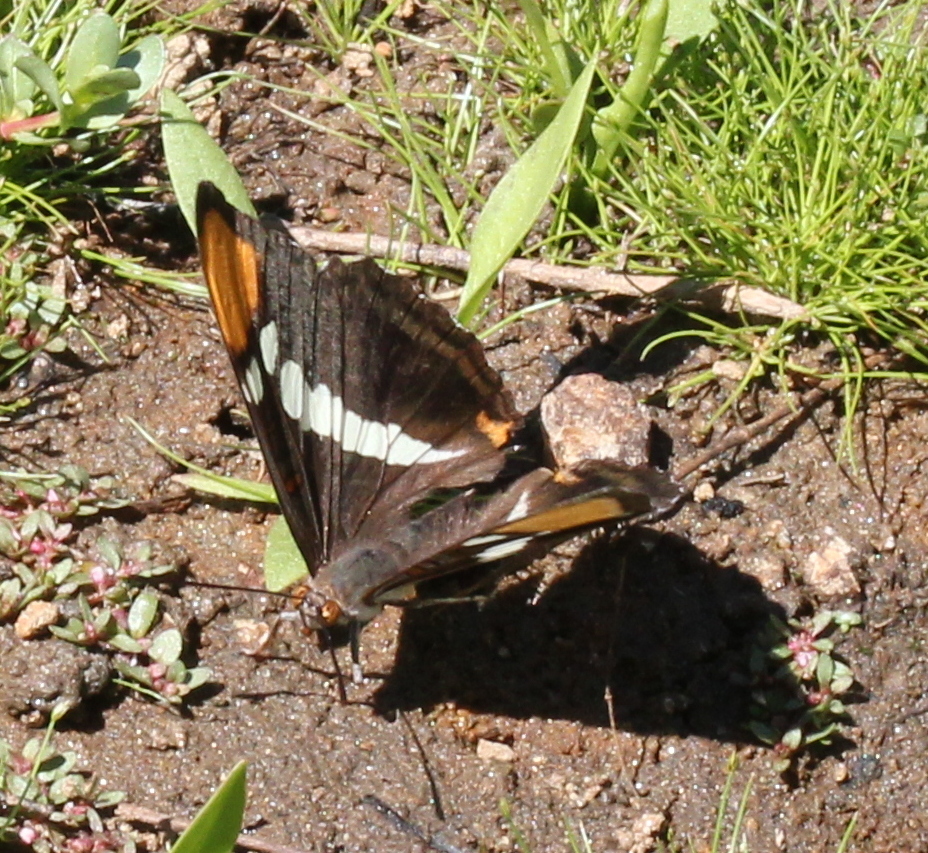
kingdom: Animalia
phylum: Arthropoda
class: Insecta
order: Lepidoptera
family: Nymphalidae
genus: Limenitis
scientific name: Limenitis bredowii
